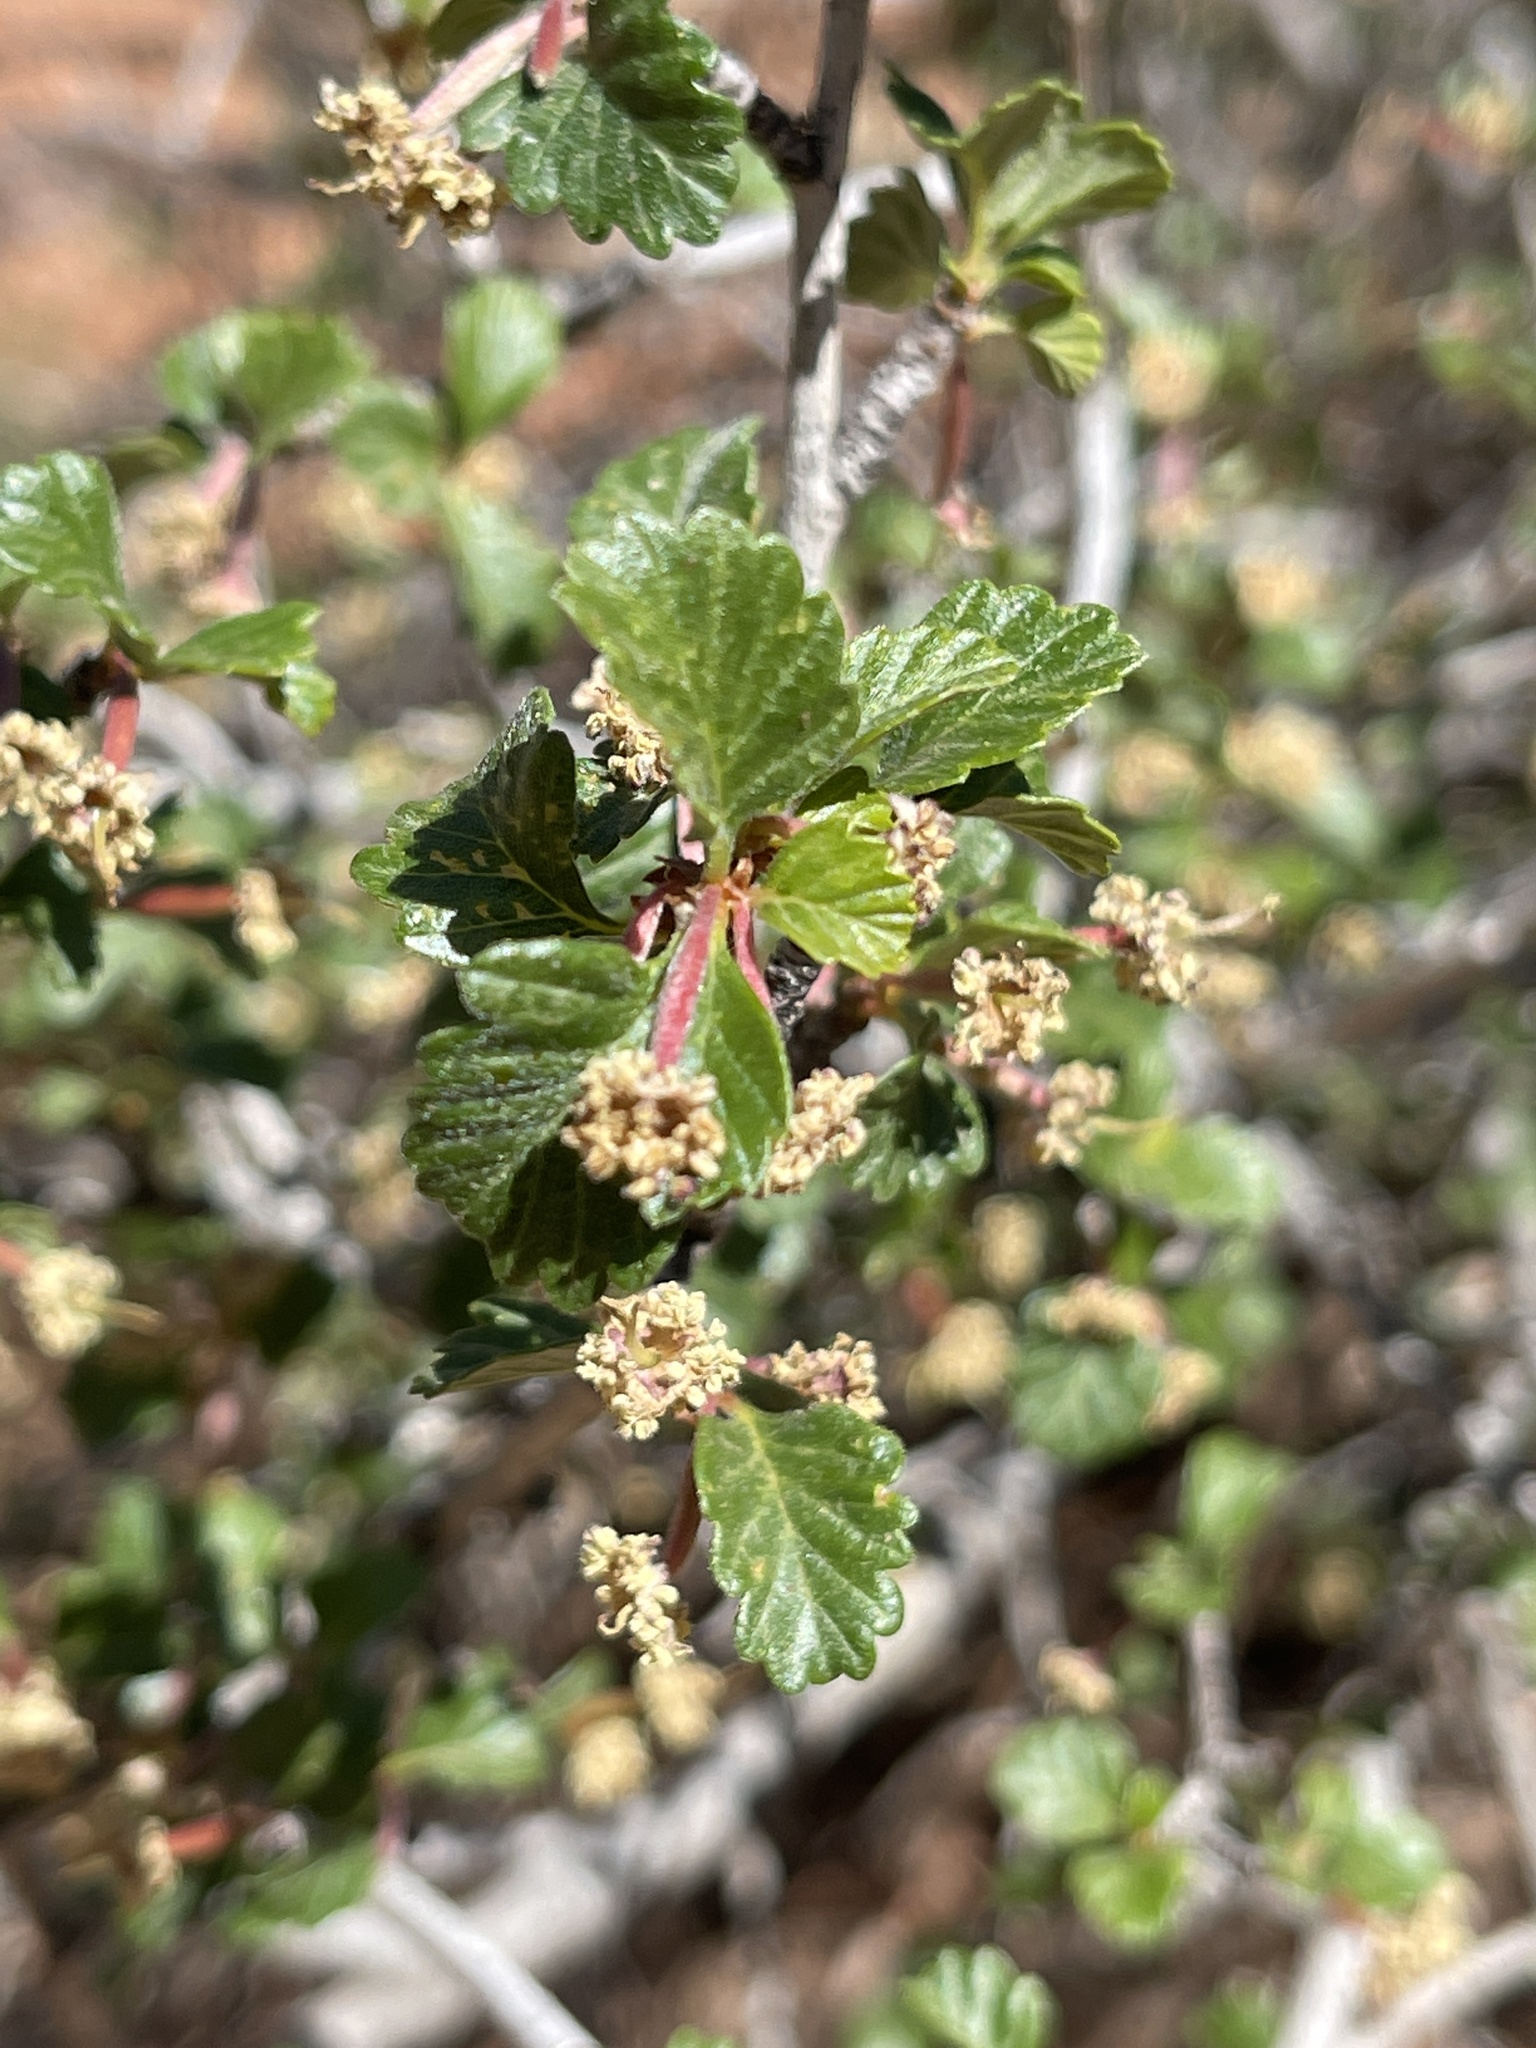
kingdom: Plantae
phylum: Tracheophyta
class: Magnoliopsida
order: Rosales
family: Rosaceae
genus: Cercocarpus
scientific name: Cercocarpus montanus
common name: Alder-leaf cercocarpus
